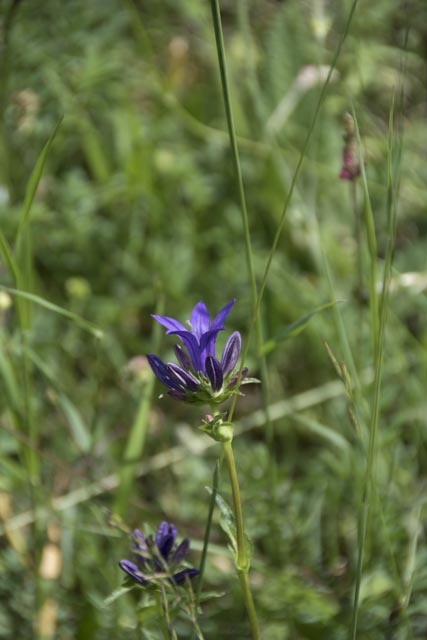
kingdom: Plantae
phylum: Tracheophyta
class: Magnoliopsida
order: Asterales
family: Campanulaceae
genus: Campanula
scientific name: Campanula glomerata
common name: Clustered bellflower
